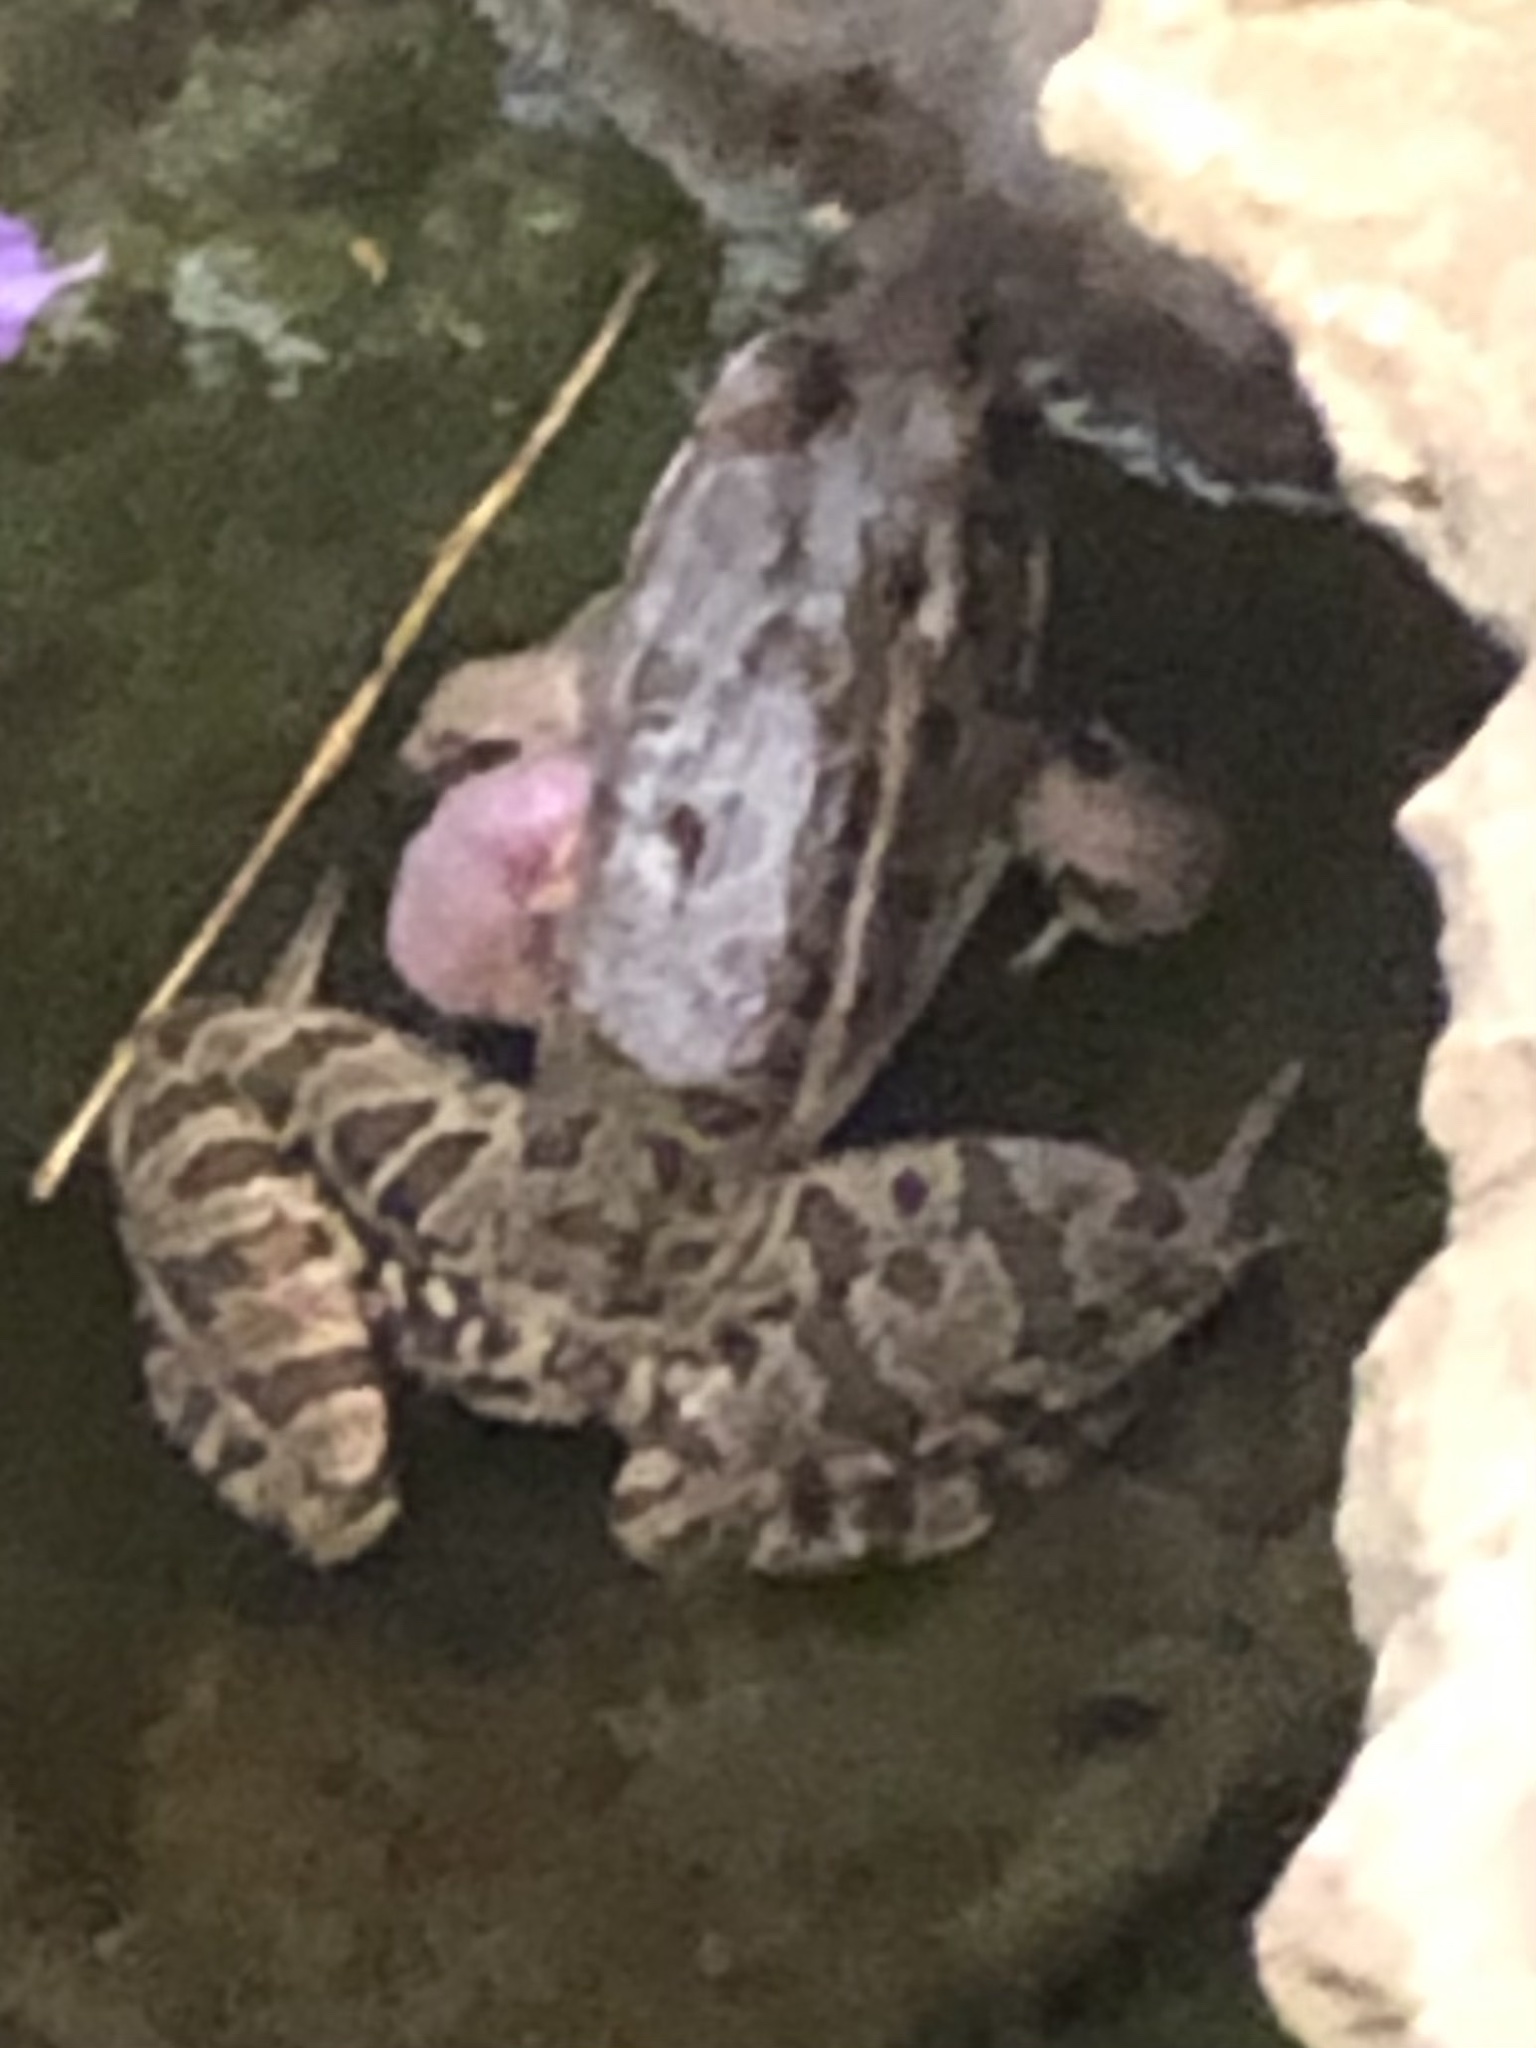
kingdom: Animalia
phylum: Chordata
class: Amphibia
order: Anura
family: Ranidae
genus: Lithobates
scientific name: Lithobates berlandieri
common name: Rio grande leopard frog
